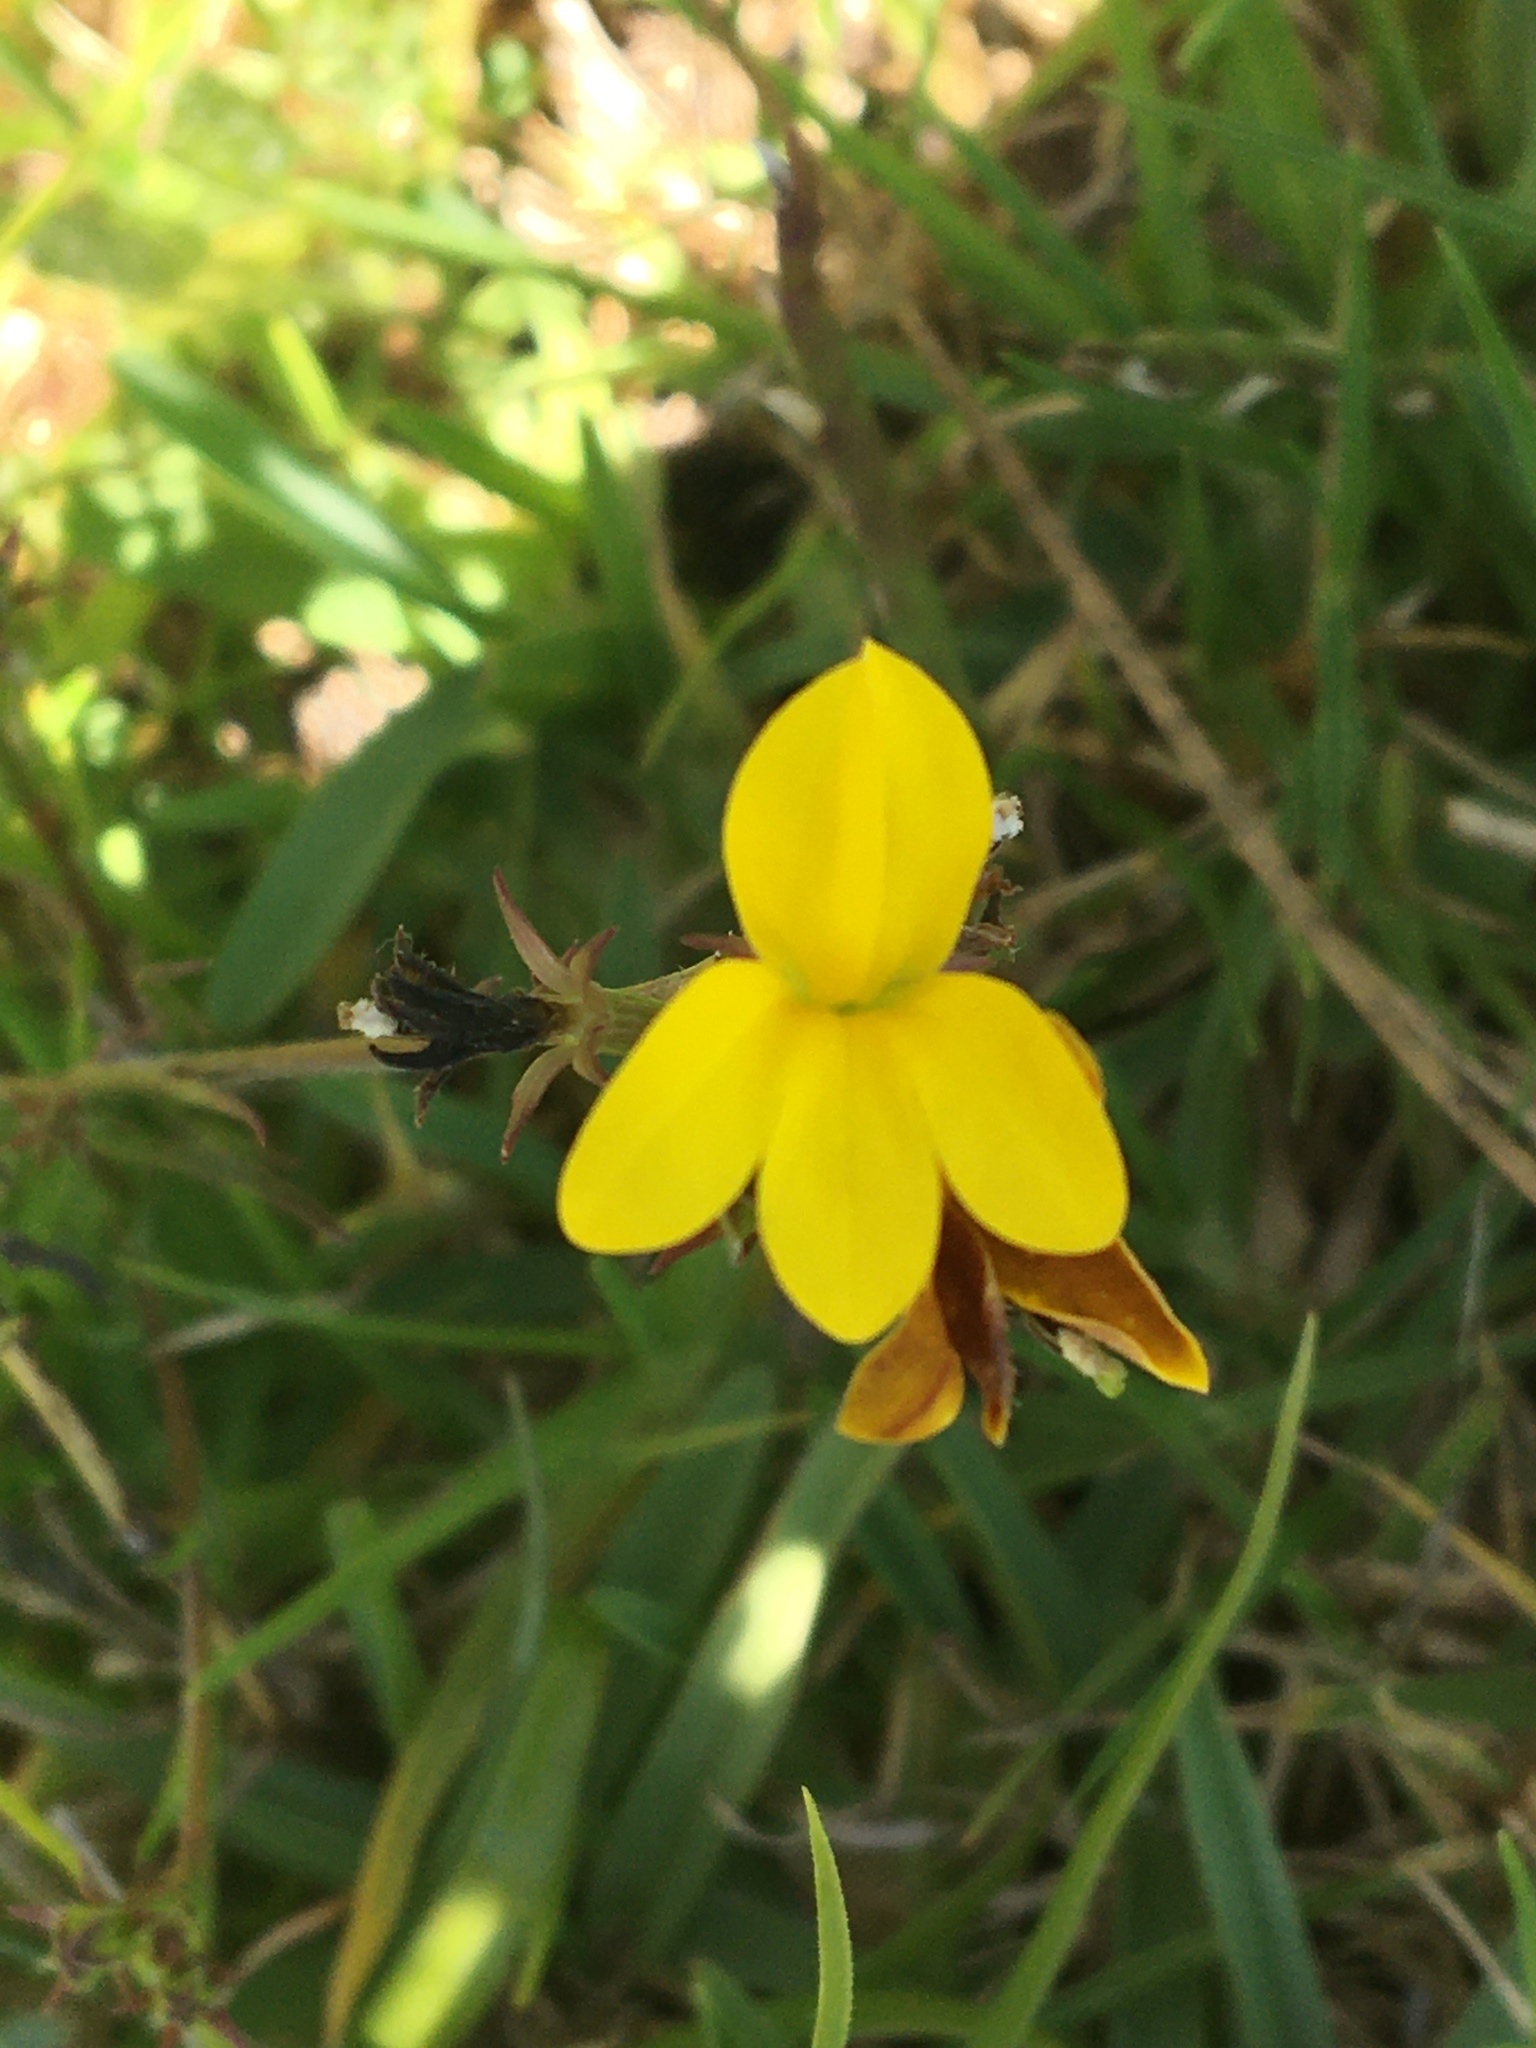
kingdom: Plantae
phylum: Tracheophyta
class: Magnoliopsida
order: Asterales
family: Campanulaceae
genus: Monopsis
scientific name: Monopsis lutea
